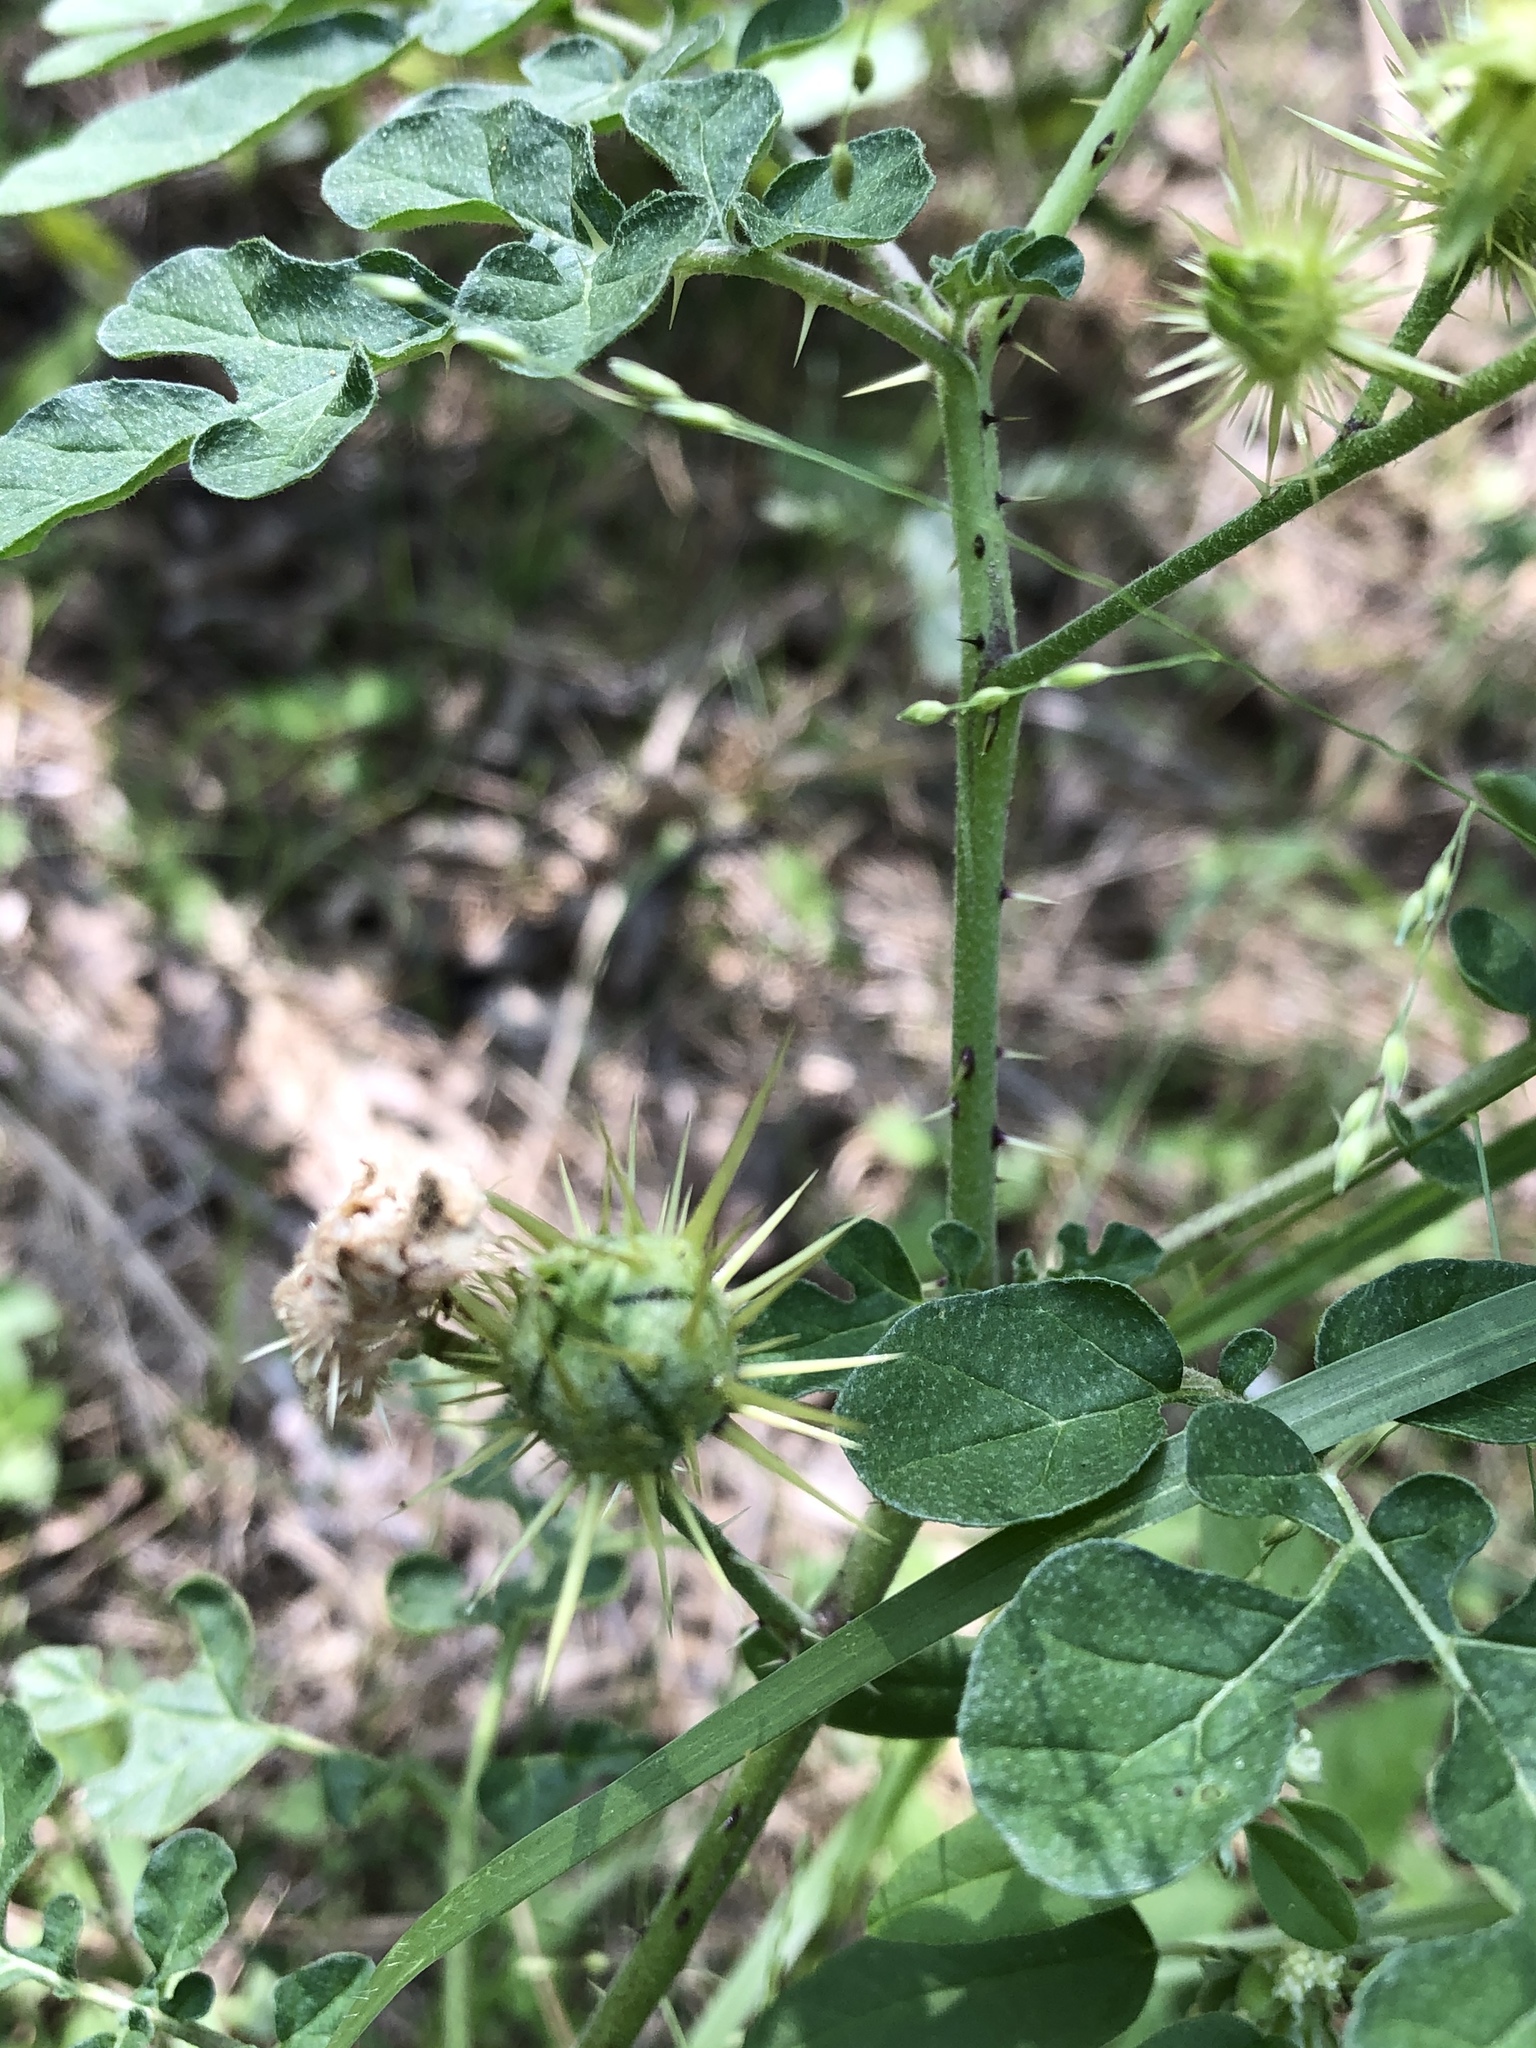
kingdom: Plantae
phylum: Tracheophyta
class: Magnoliopsida
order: Solanales
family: Solanaceae
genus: Solanum
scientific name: Solanum angustifolium
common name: Buffalobur nightshade
